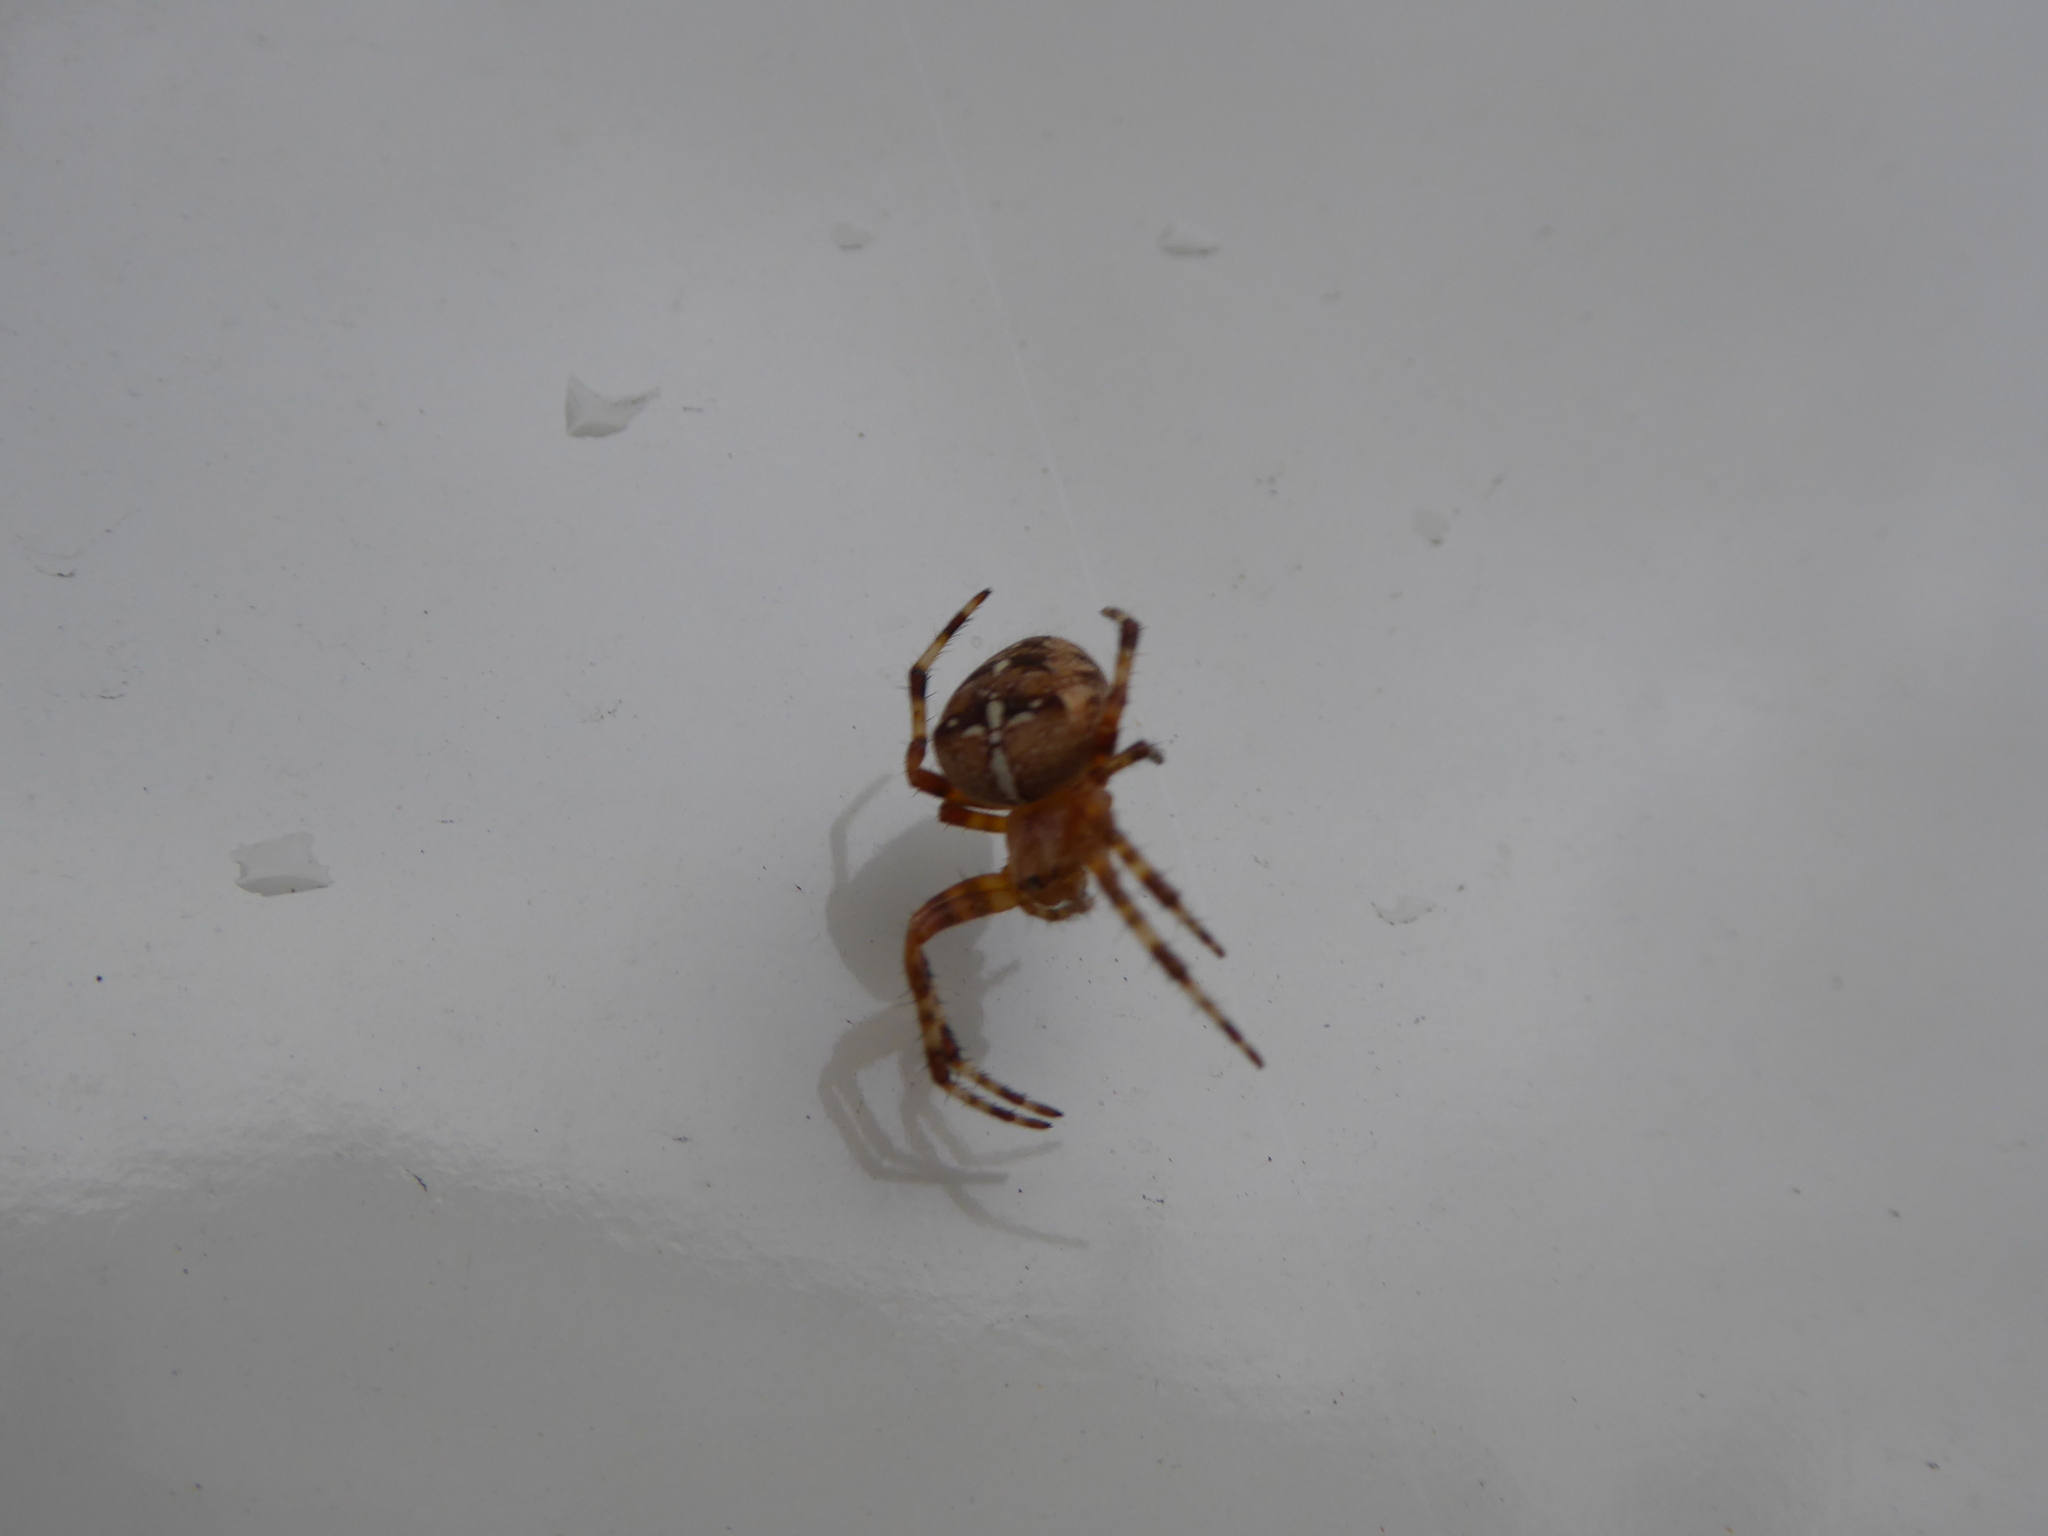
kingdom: Animalia
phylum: Arthropoda
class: Arachnida
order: Araneae
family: Araneidae
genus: Araneus
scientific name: Araneus diadematus
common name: Cross orbweaver
